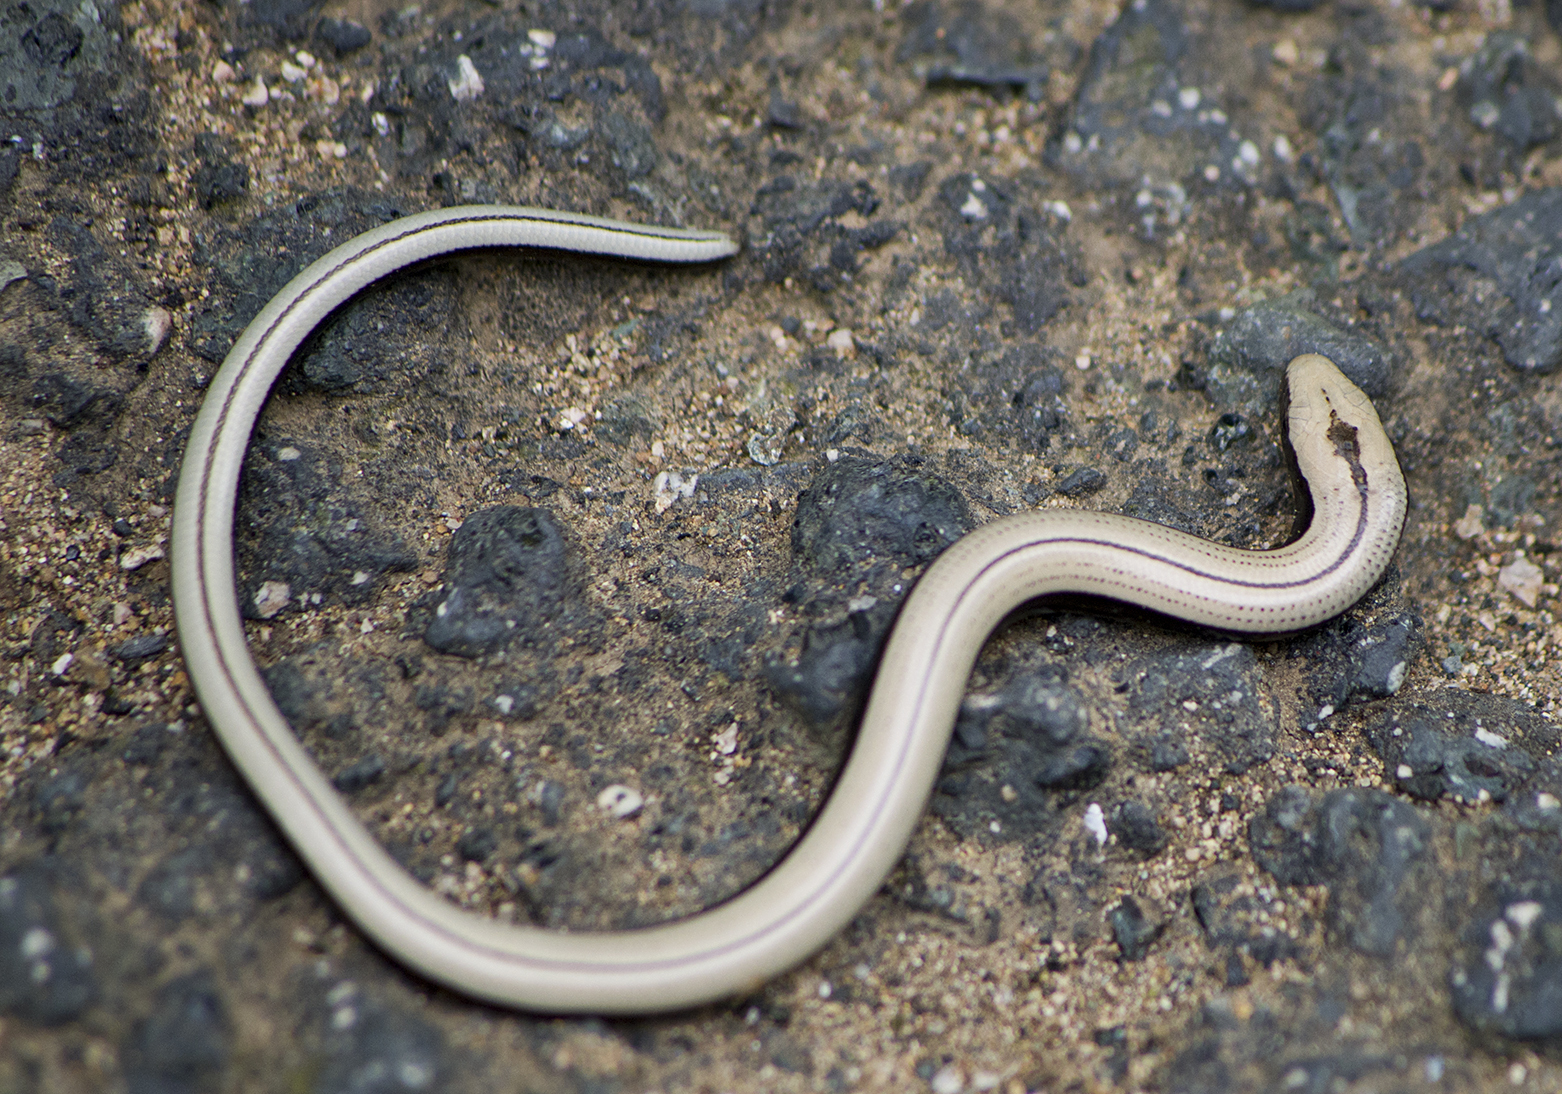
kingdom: Animalia
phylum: Chordata
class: Squamata
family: Anguidae
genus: Anguis
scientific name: Anguis colchica
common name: Slow worm
